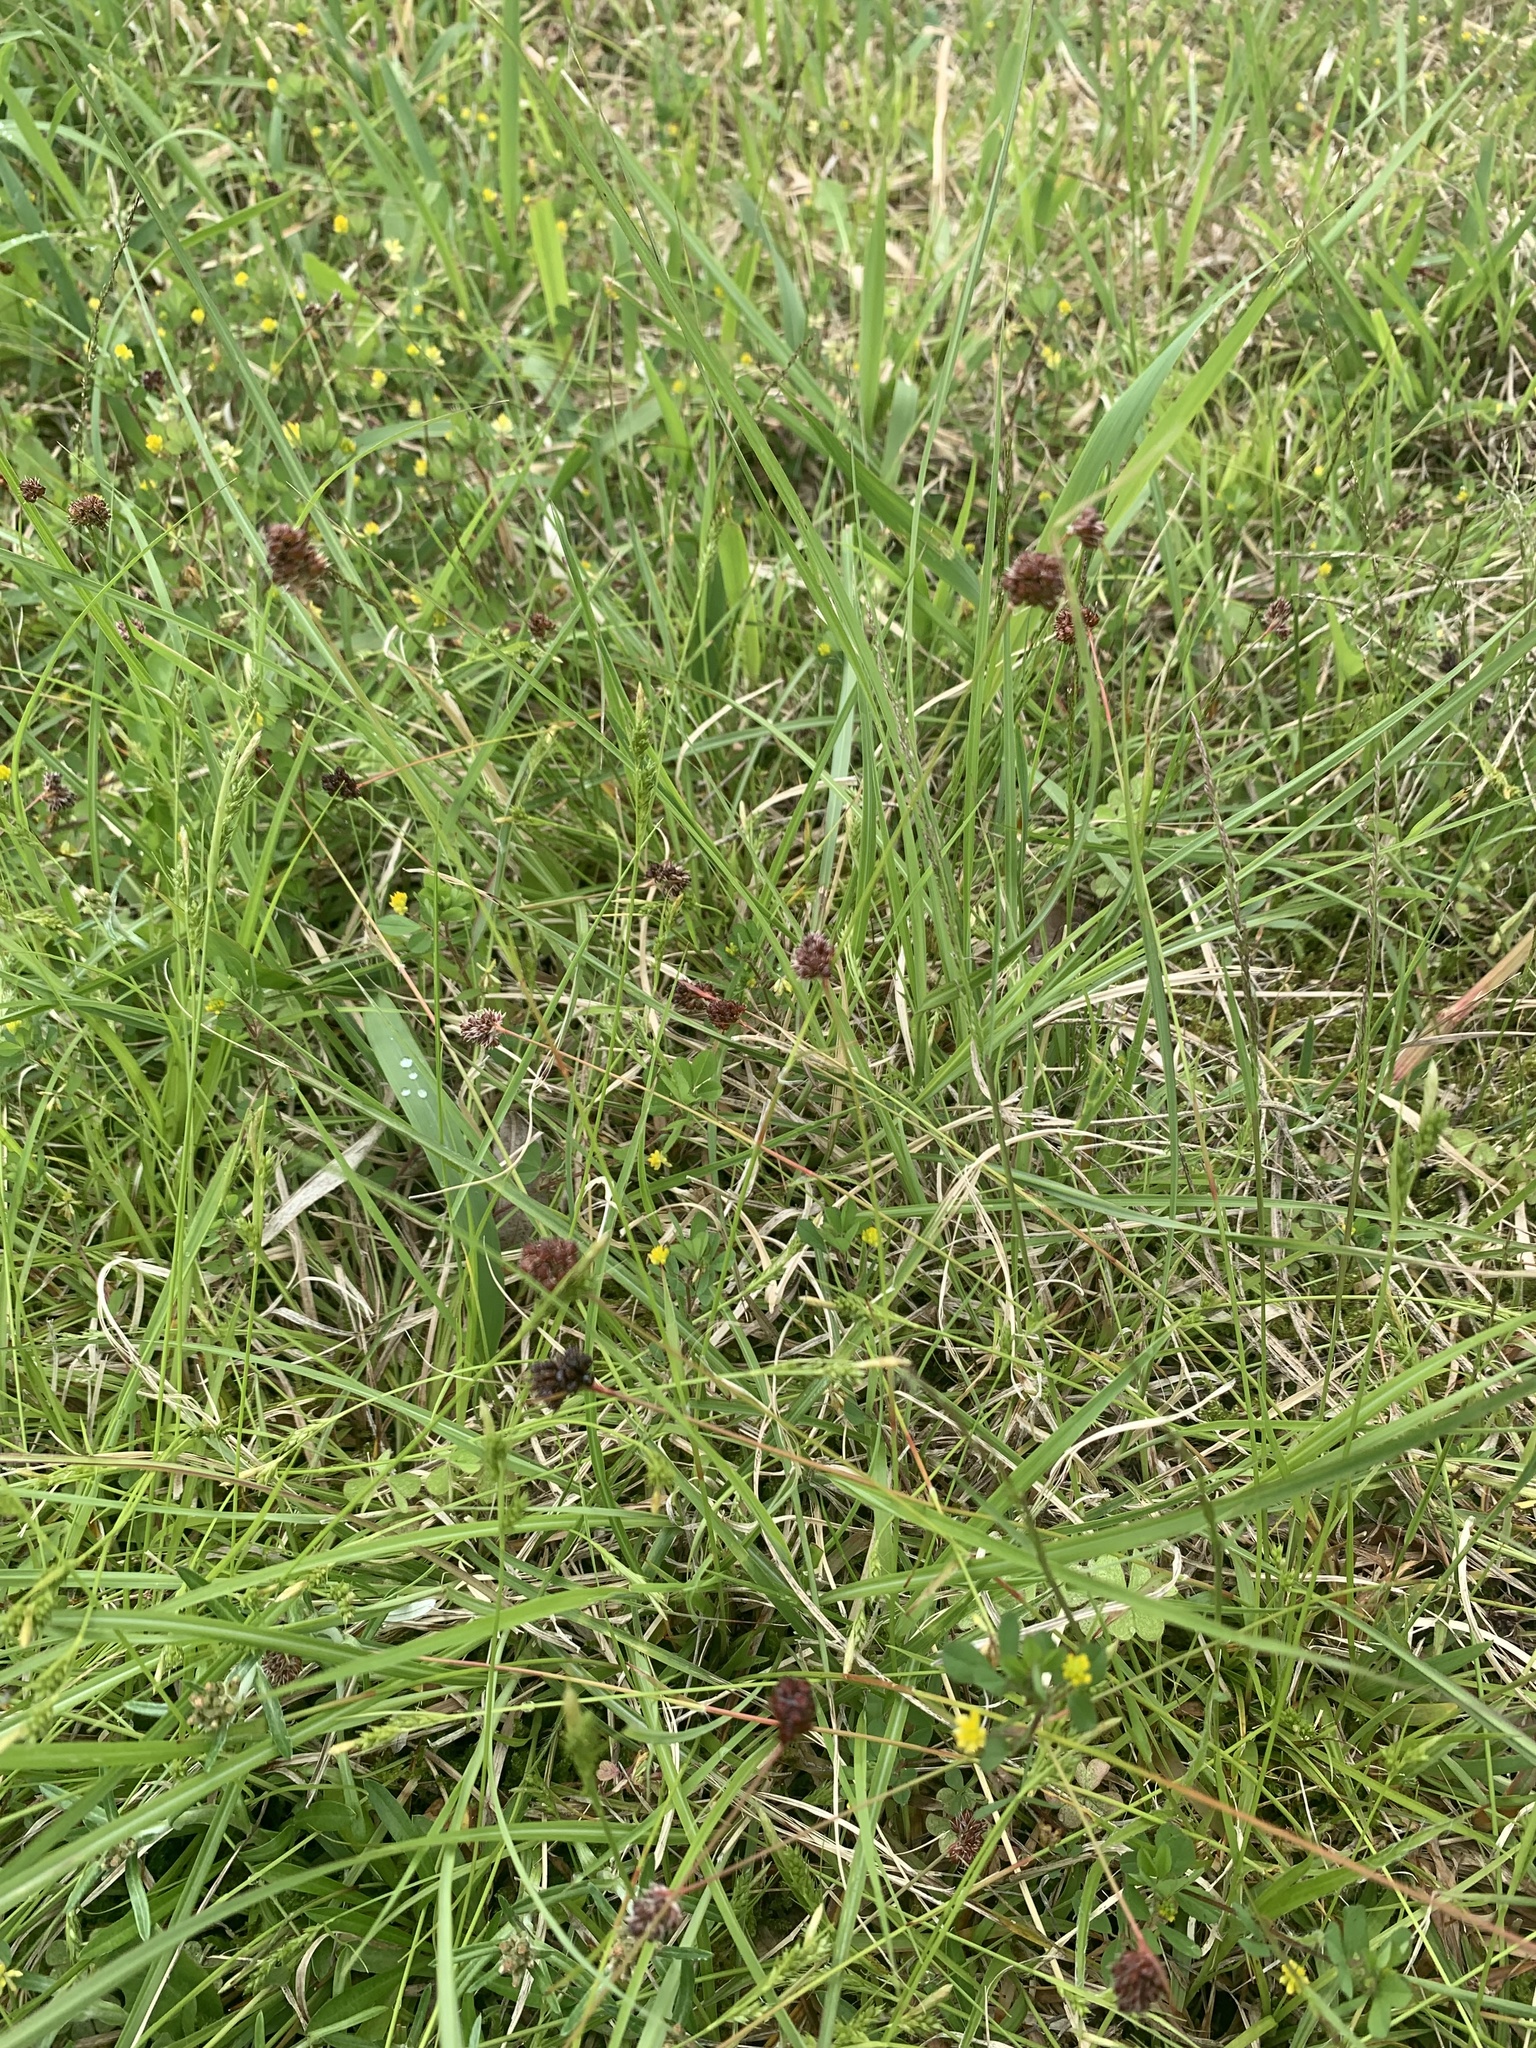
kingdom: Plantae
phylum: Tracheophyta
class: Liliopsida
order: Poales
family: Juncaceae
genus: Luzula
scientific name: Luzula capitata
